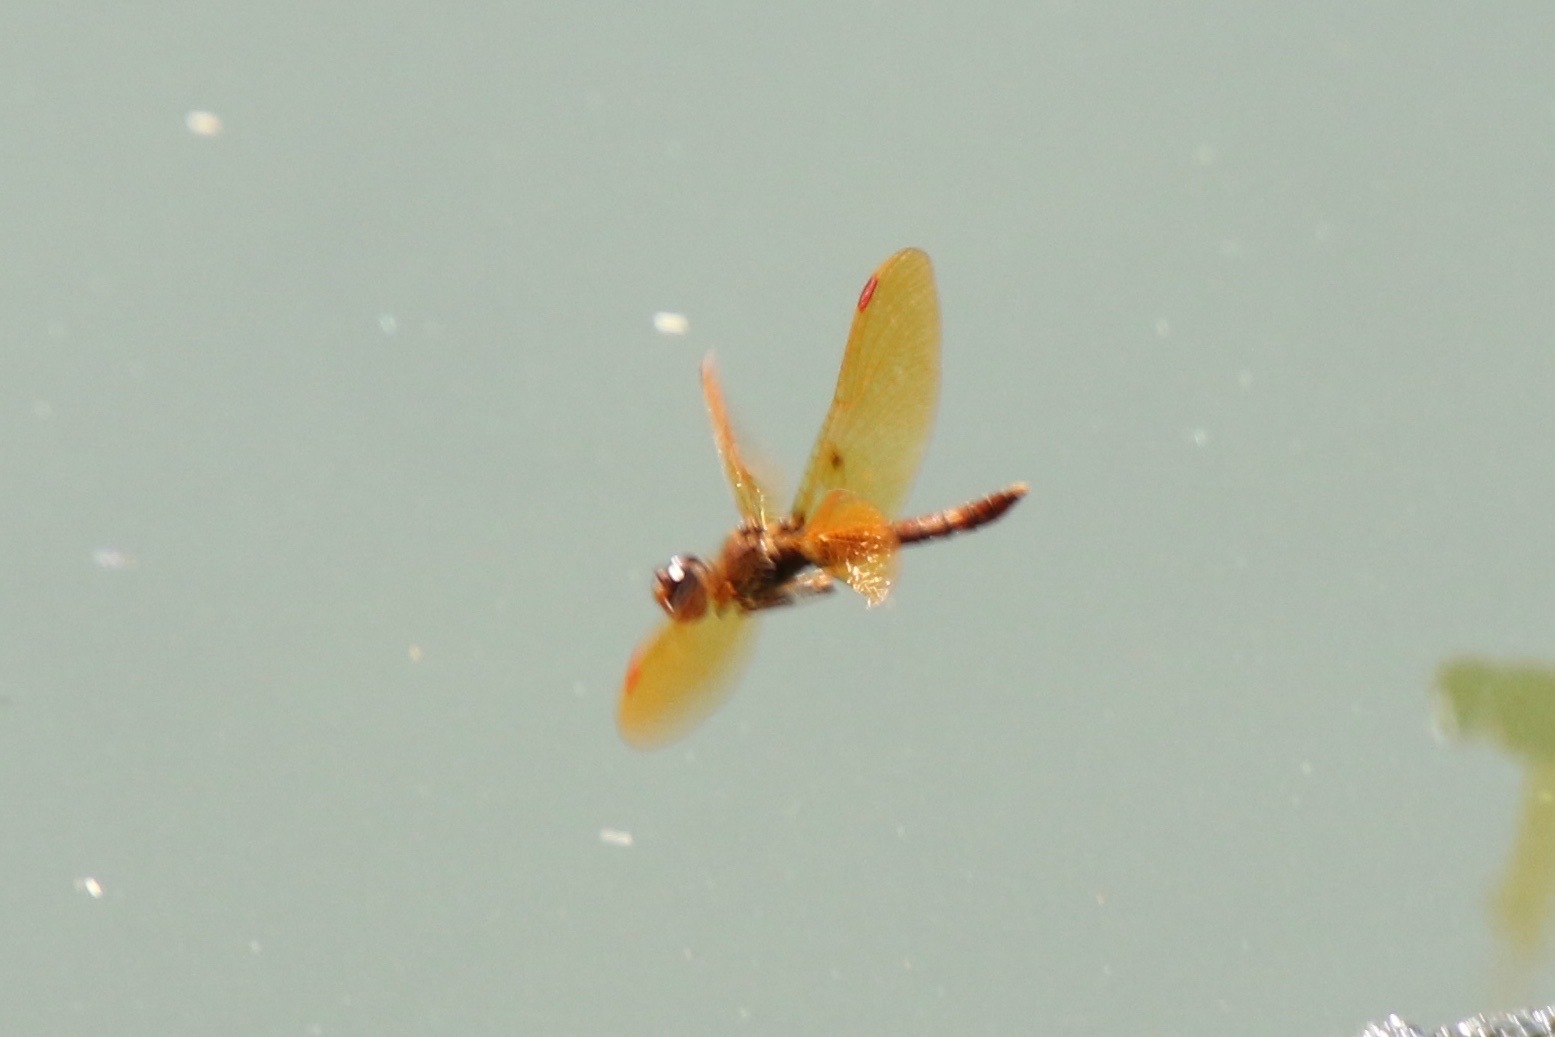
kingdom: Animalia
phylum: Arthropoda
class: Insecta
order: Odonata
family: Libellulidae
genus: Perithemis
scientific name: Perithemis tenera
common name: Eastern amberwing
